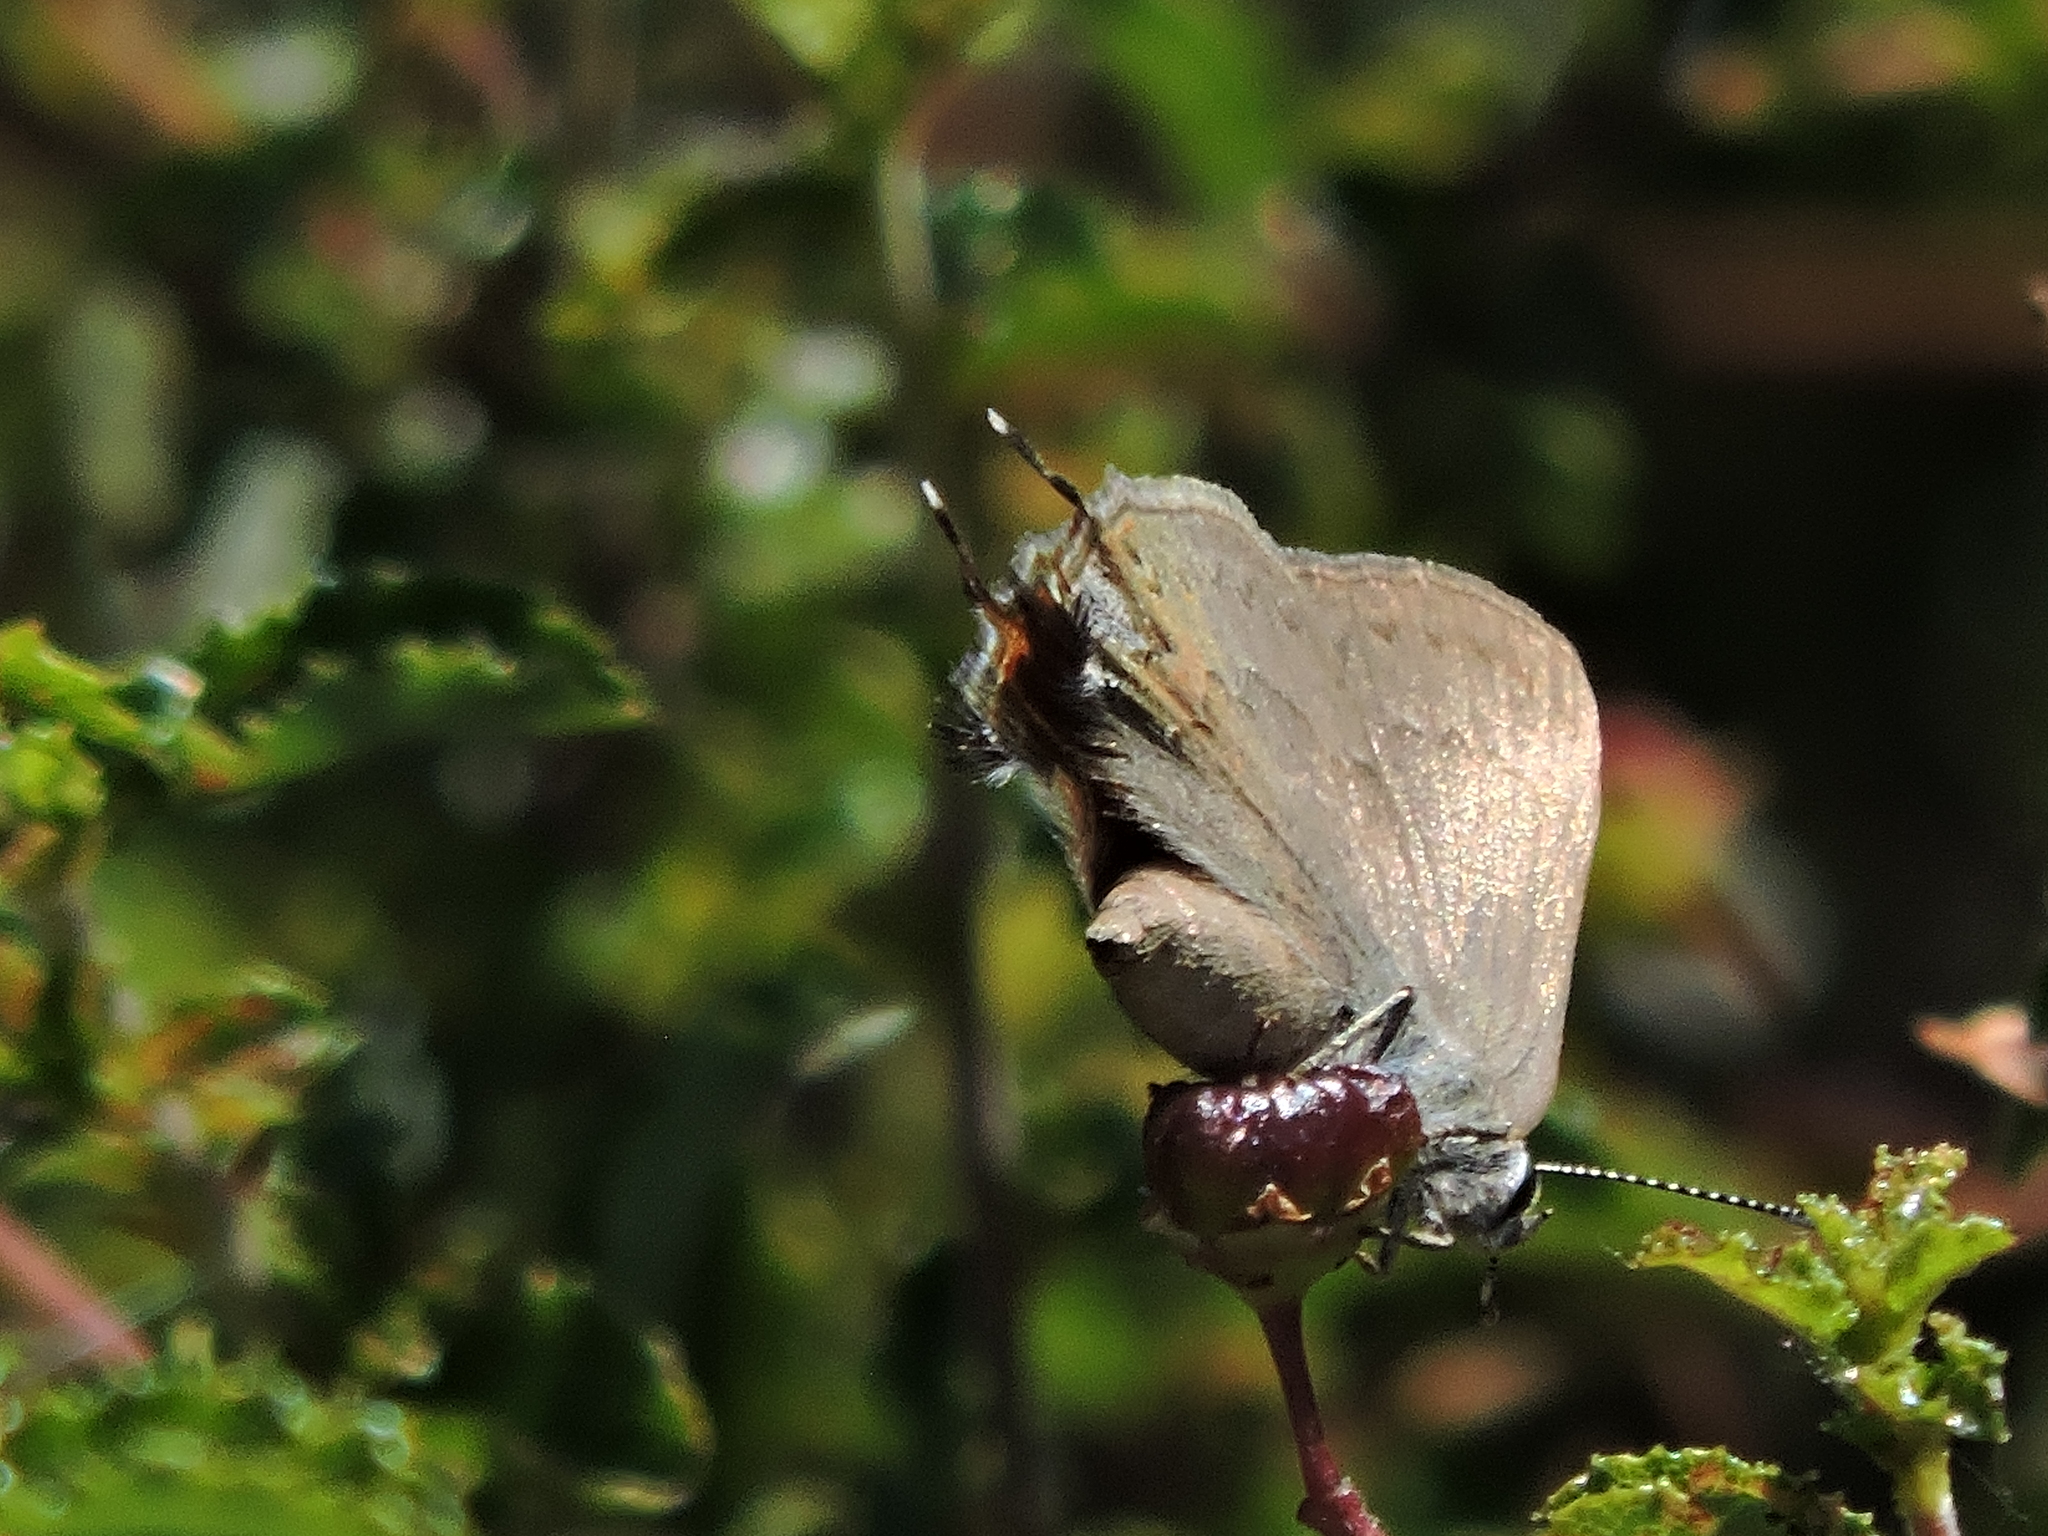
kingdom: Animalia
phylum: Arthropoda
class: Insecta
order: Lepidoptera
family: Lycaenidae
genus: Strymon
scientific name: Strymon saepium
